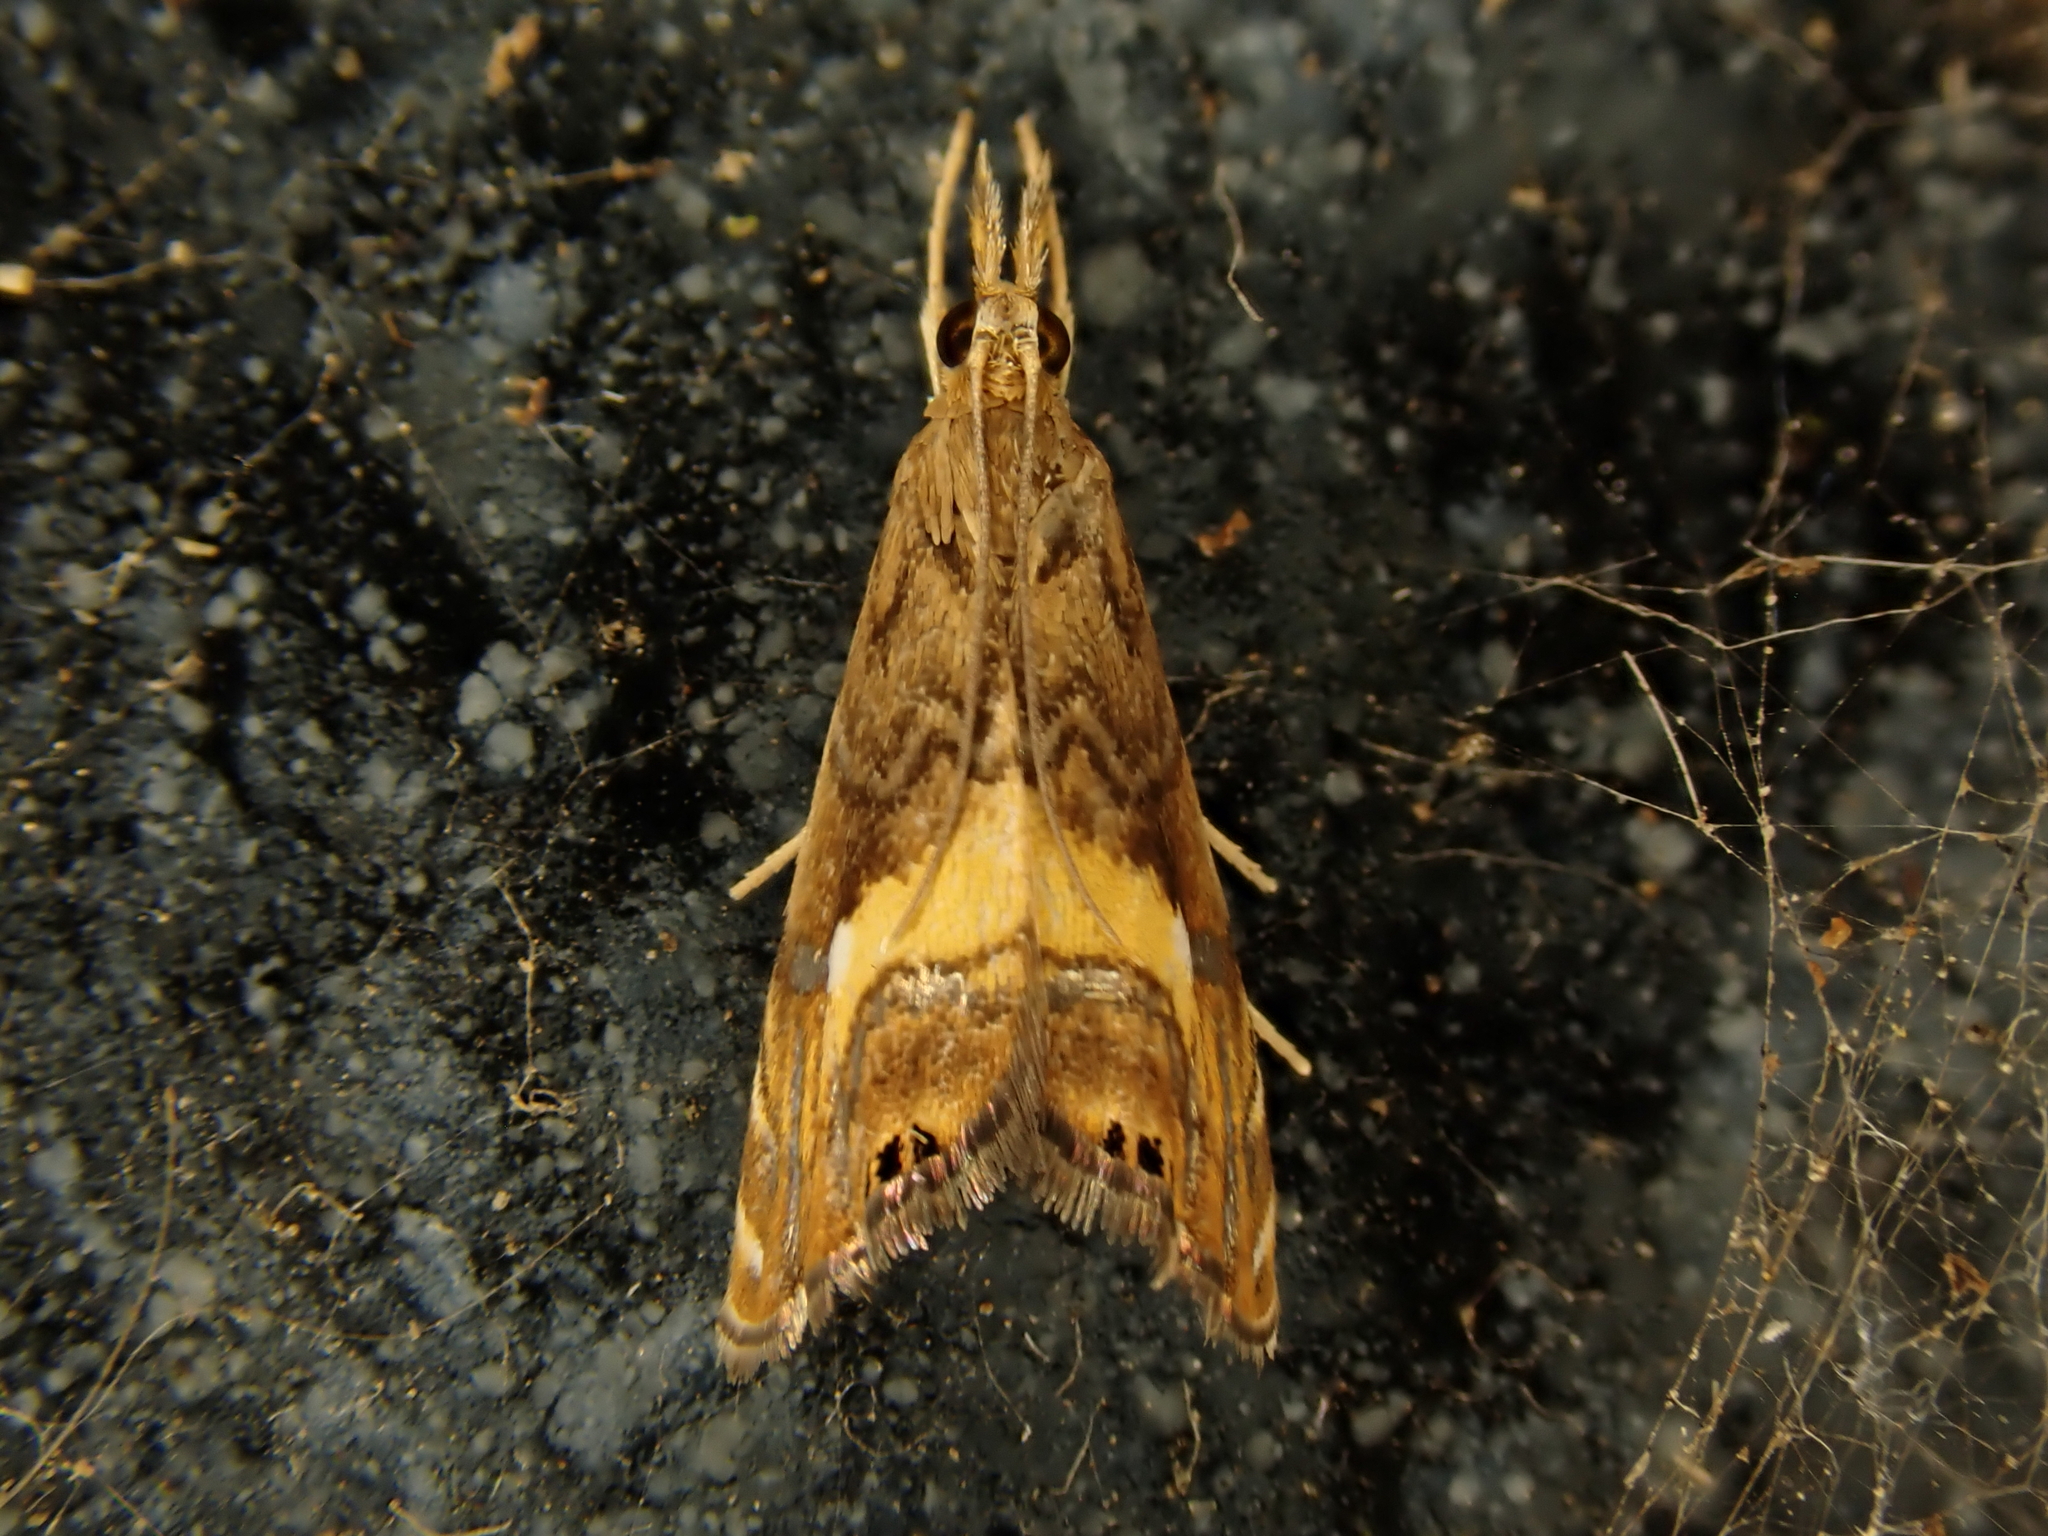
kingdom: Animalia
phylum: Arthropoda
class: Insecta
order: Lepidoptera
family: Crambidae
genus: Glaucocharis
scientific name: Glaucocharis chrysochyta
